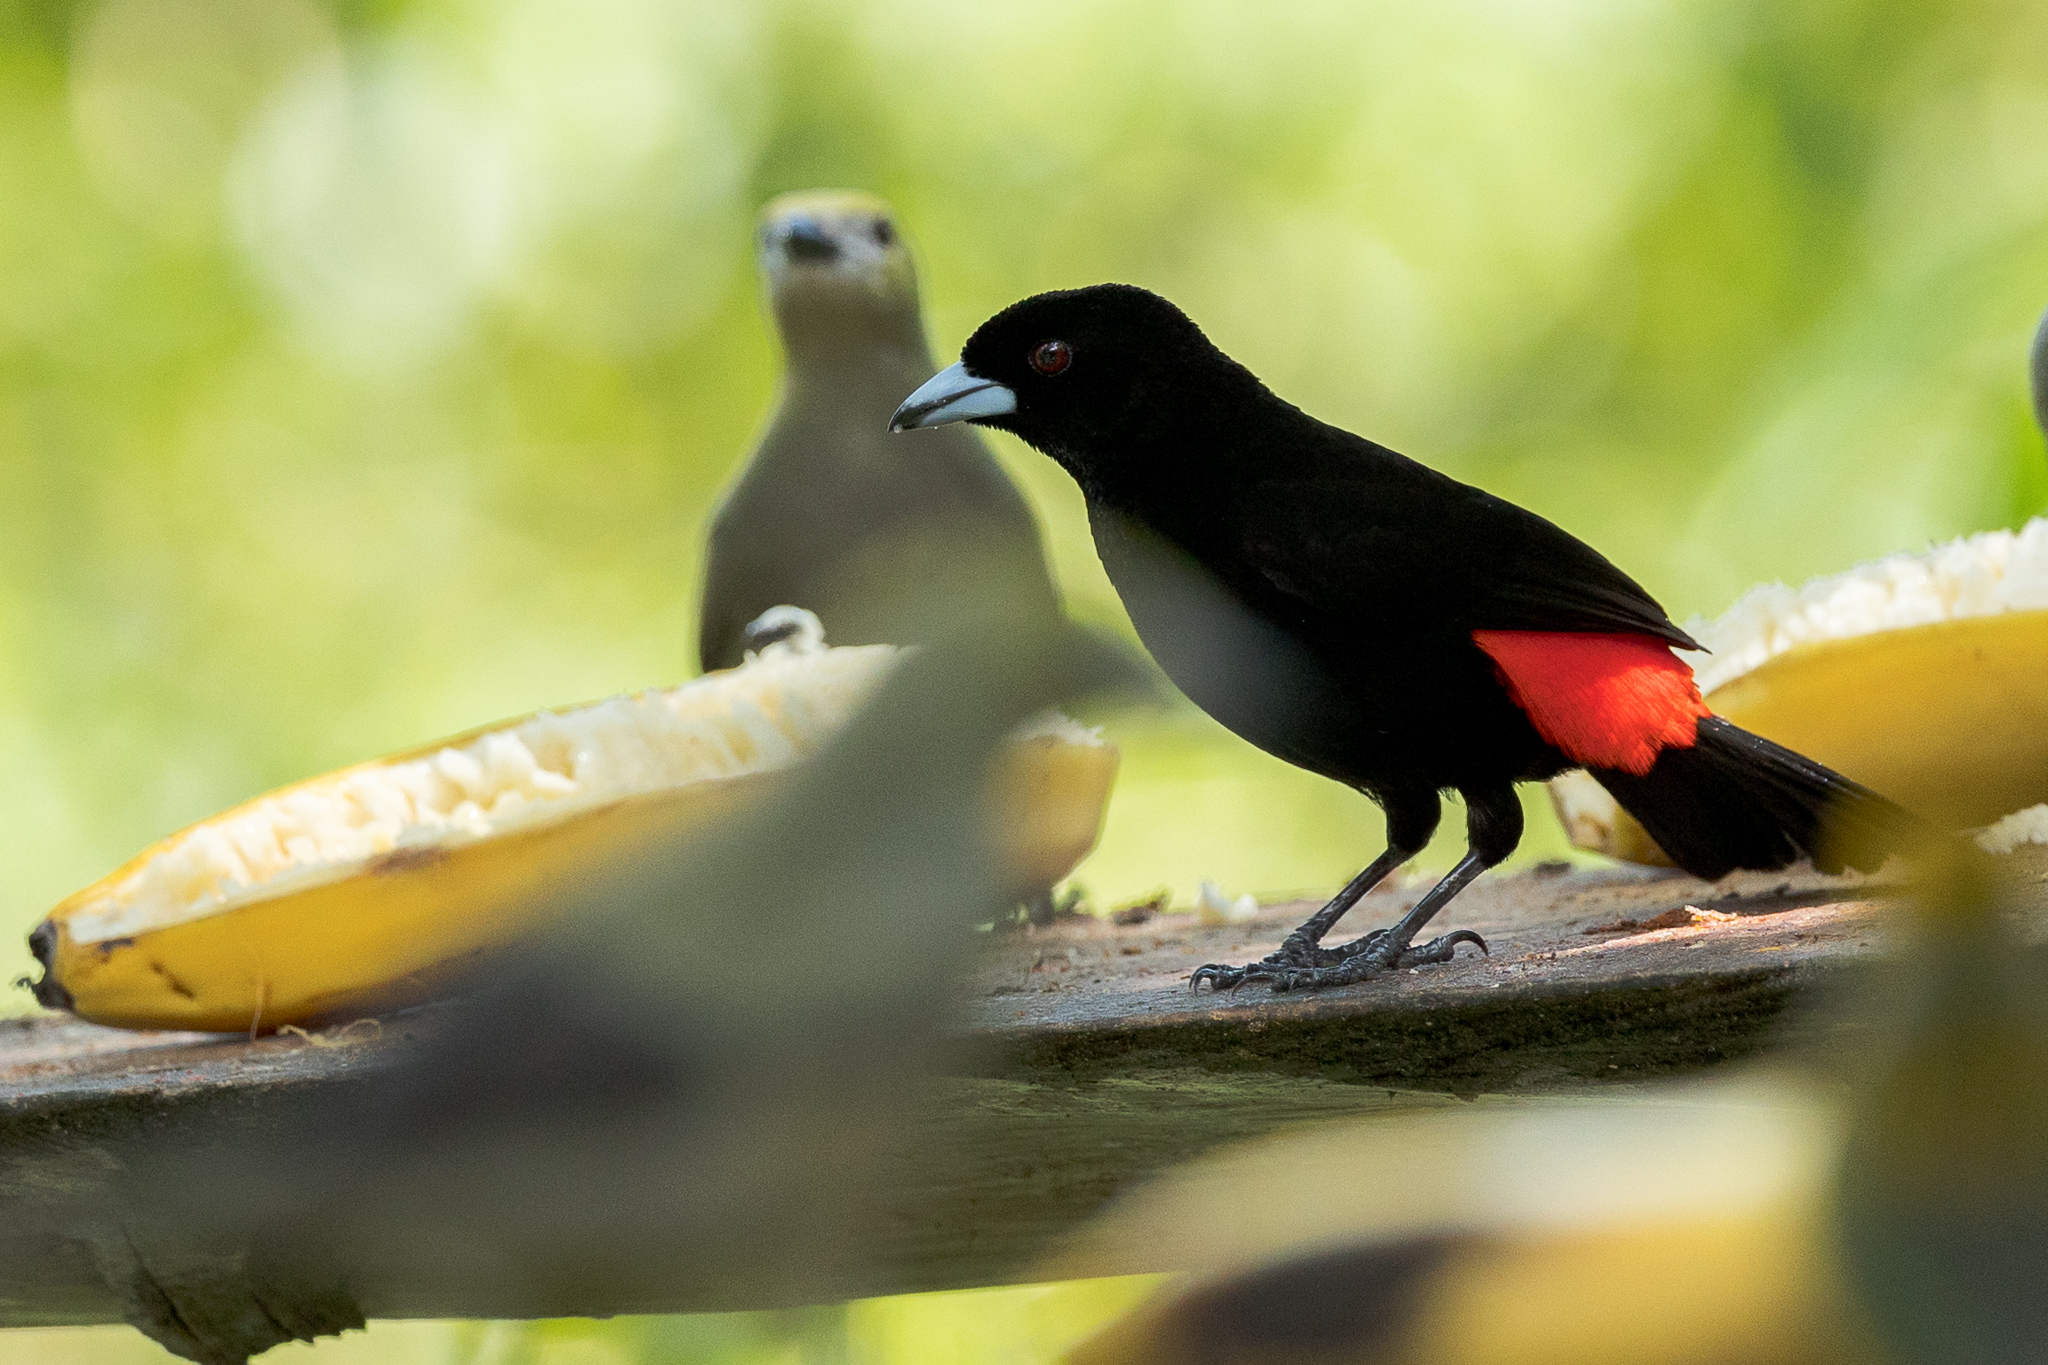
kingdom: Animalia
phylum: Chordata
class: Aves
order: Passeriformes
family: Thraupidae
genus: Ramphocelus
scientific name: Ramphocelus passerinii
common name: Passerini's tanager
